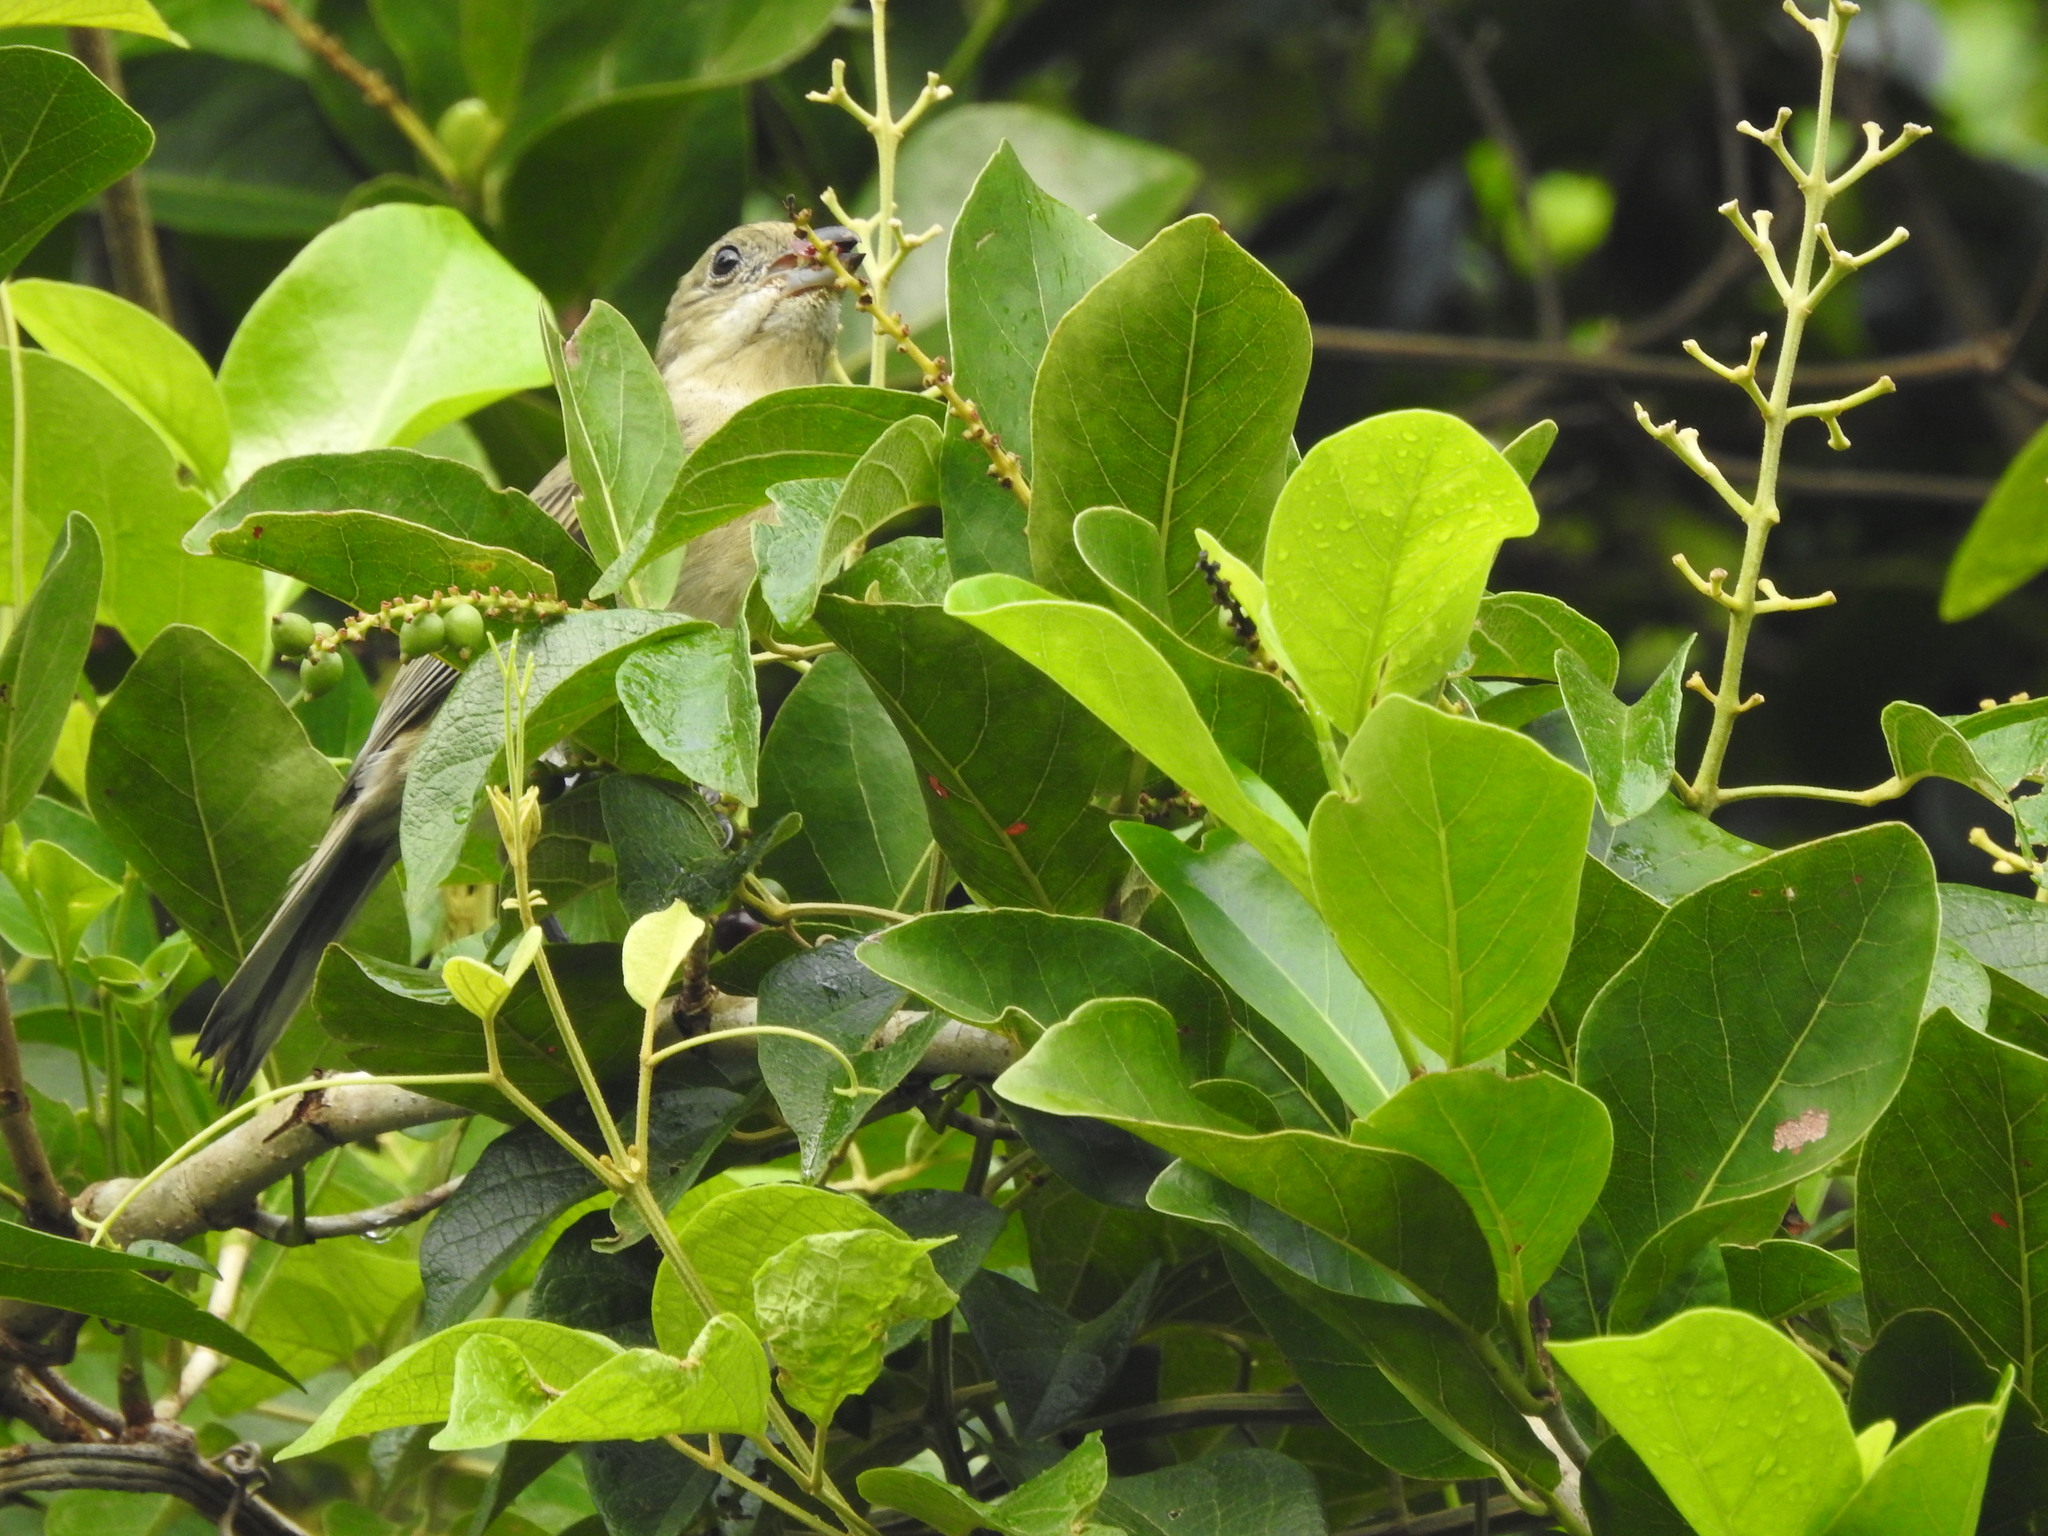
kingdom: Animalia
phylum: Chordata
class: Aves
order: Passeriformes
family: Spindalidae
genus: Spindalis
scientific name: Spindalis zena
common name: Western spindalis
